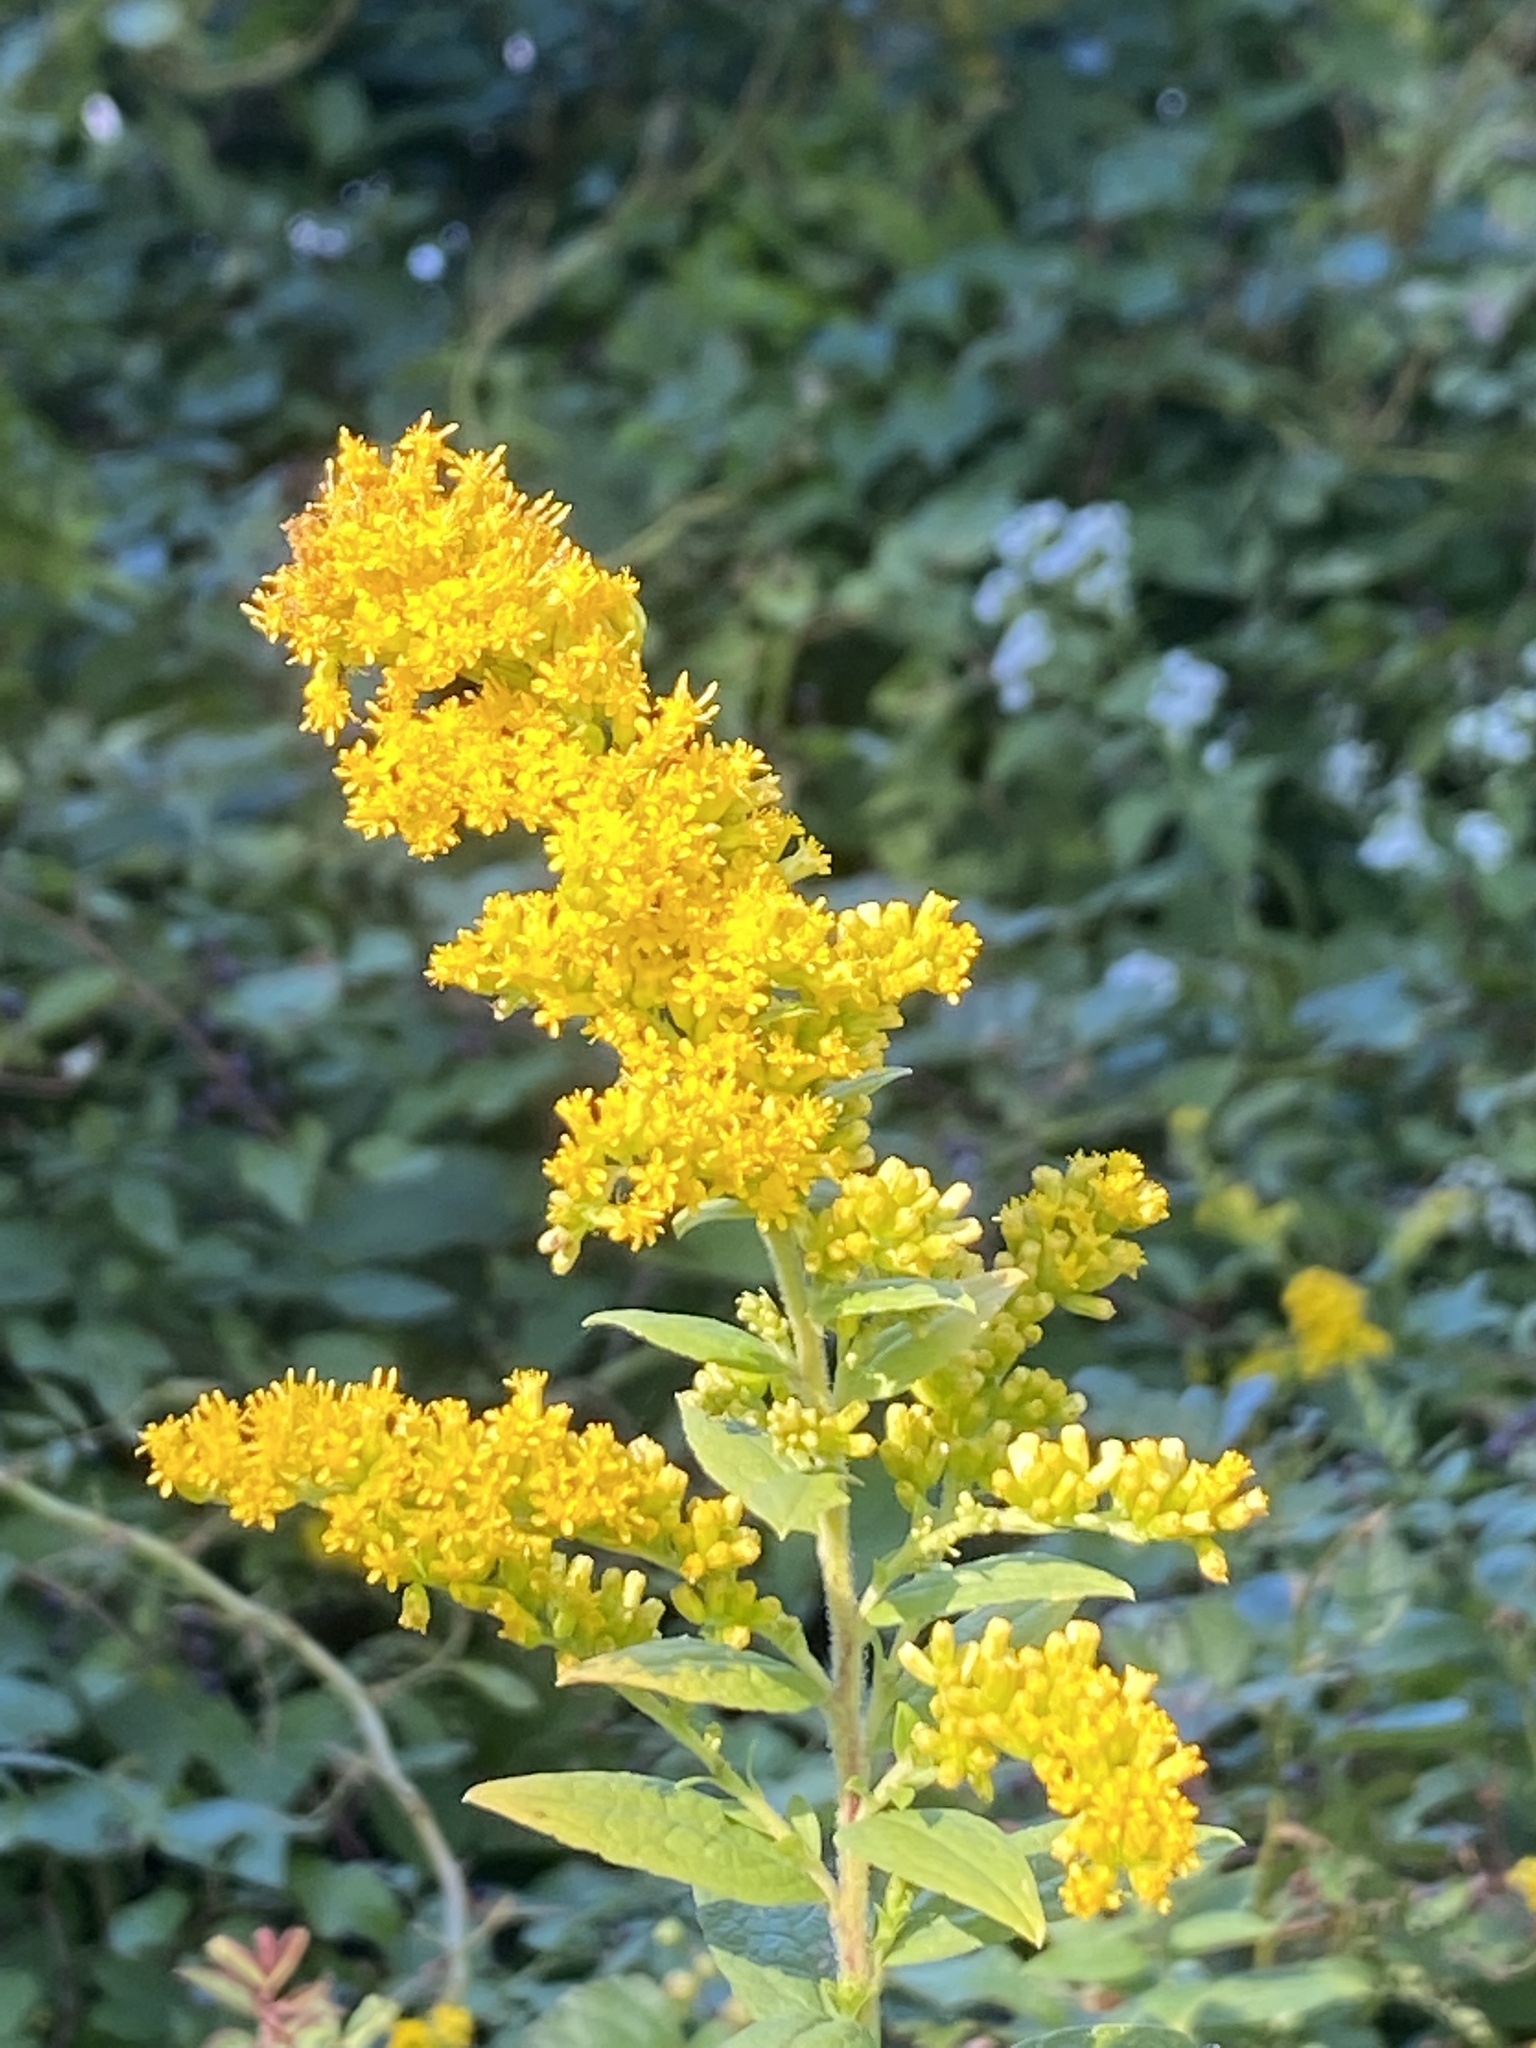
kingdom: Plantae
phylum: Tracheophyta
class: Magnoliopsida
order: Asterales
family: Asteraceae
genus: Solidago
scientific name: Solidago rugosa
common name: Rough-stemmed goldenrod
